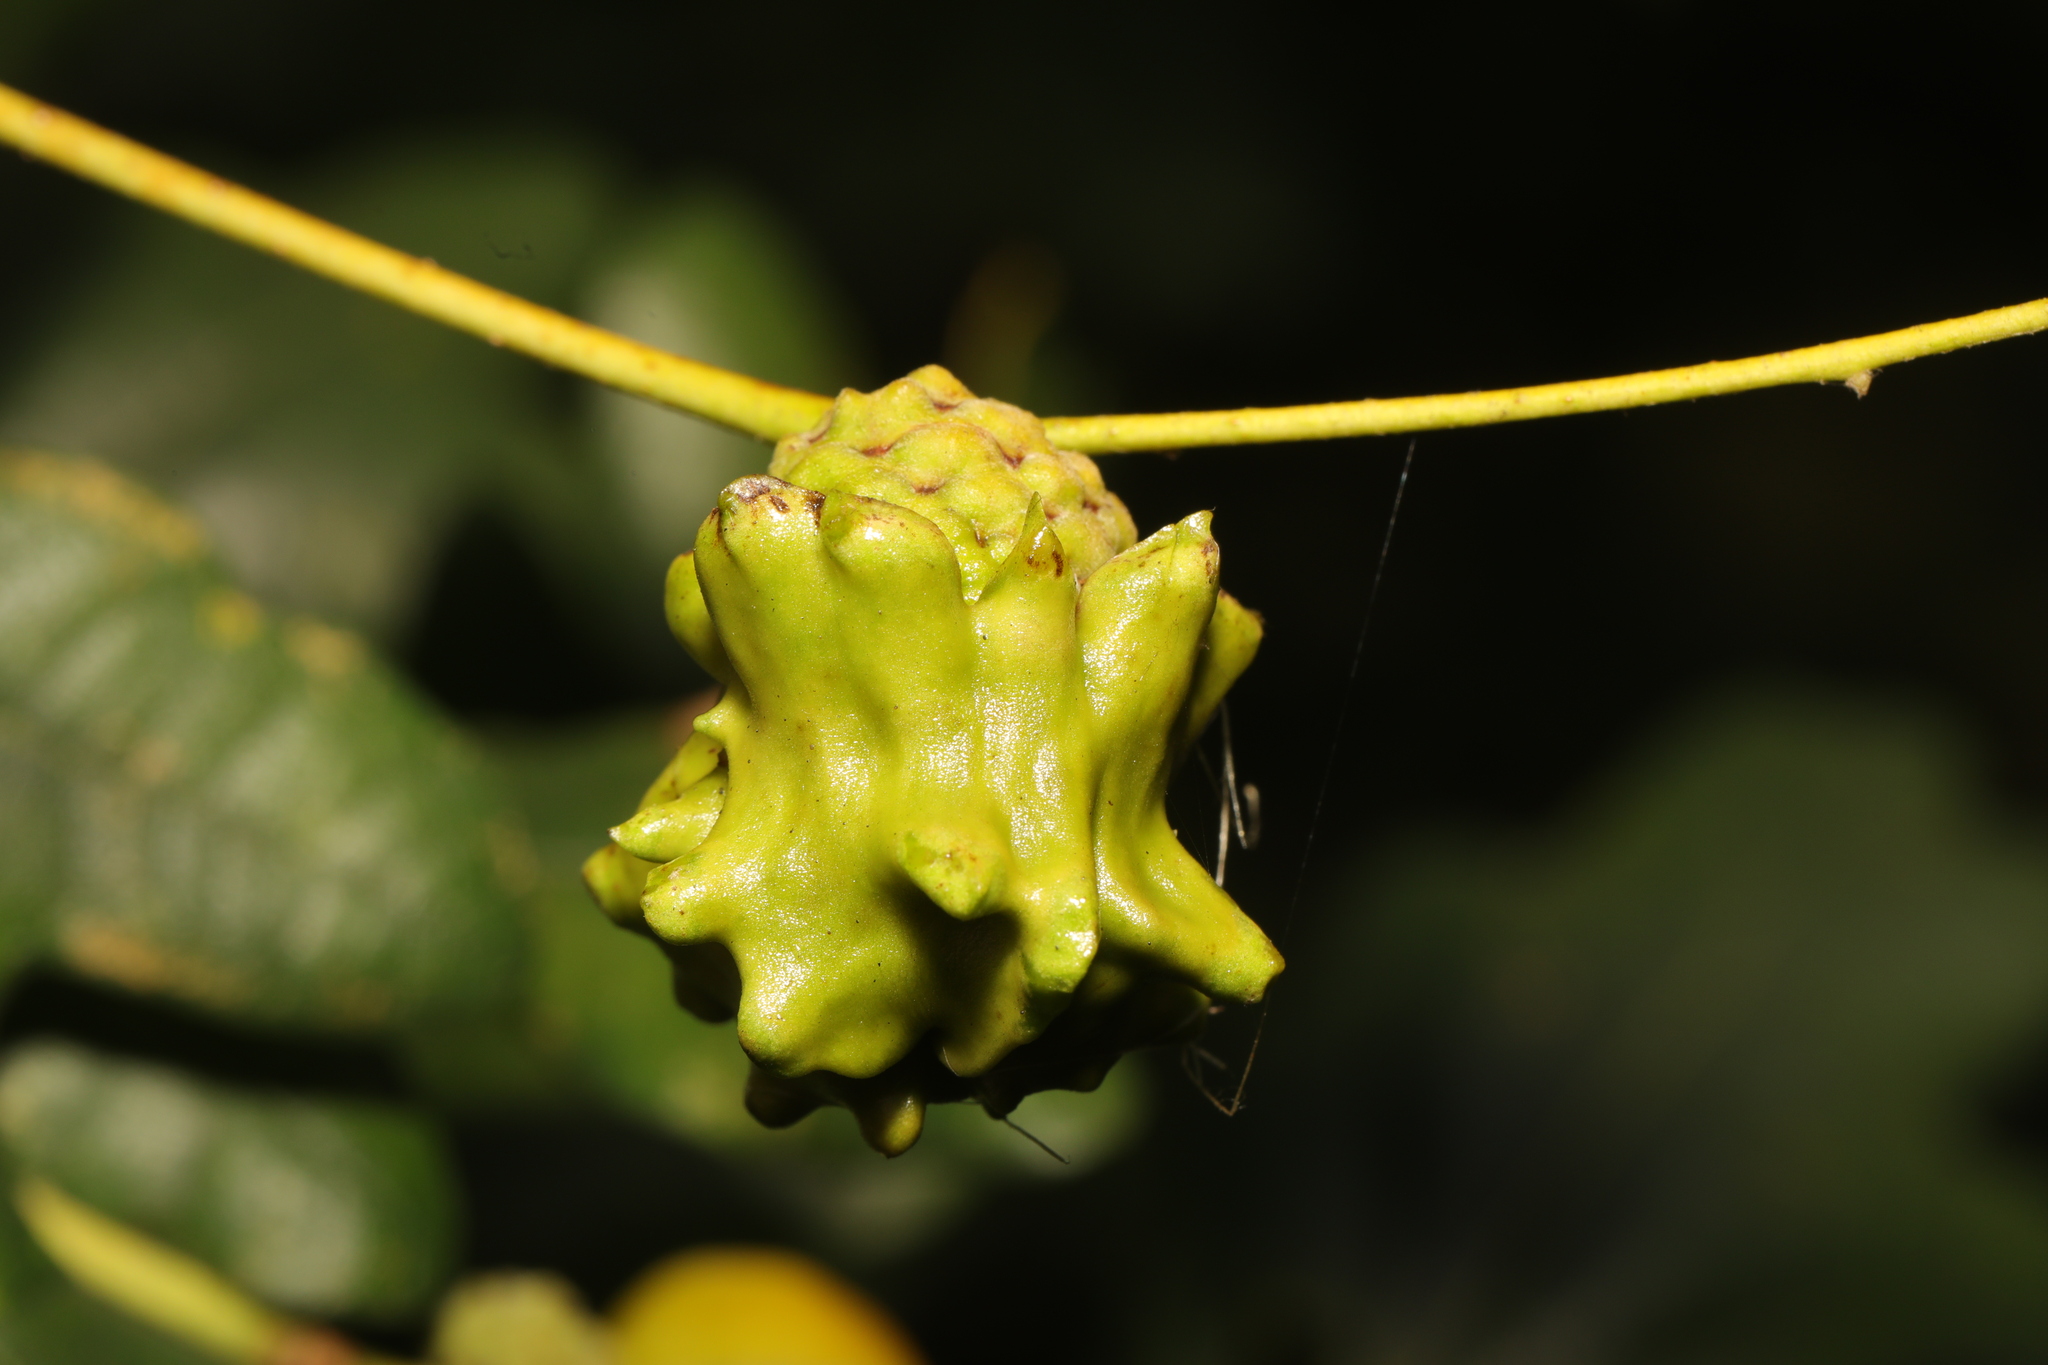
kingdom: Animalia
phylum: Arthropoda
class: Insecta
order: Hymenoptera
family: Cynipidae
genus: Andricus
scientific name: Andricus quercuscalicis
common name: Knopper gall
